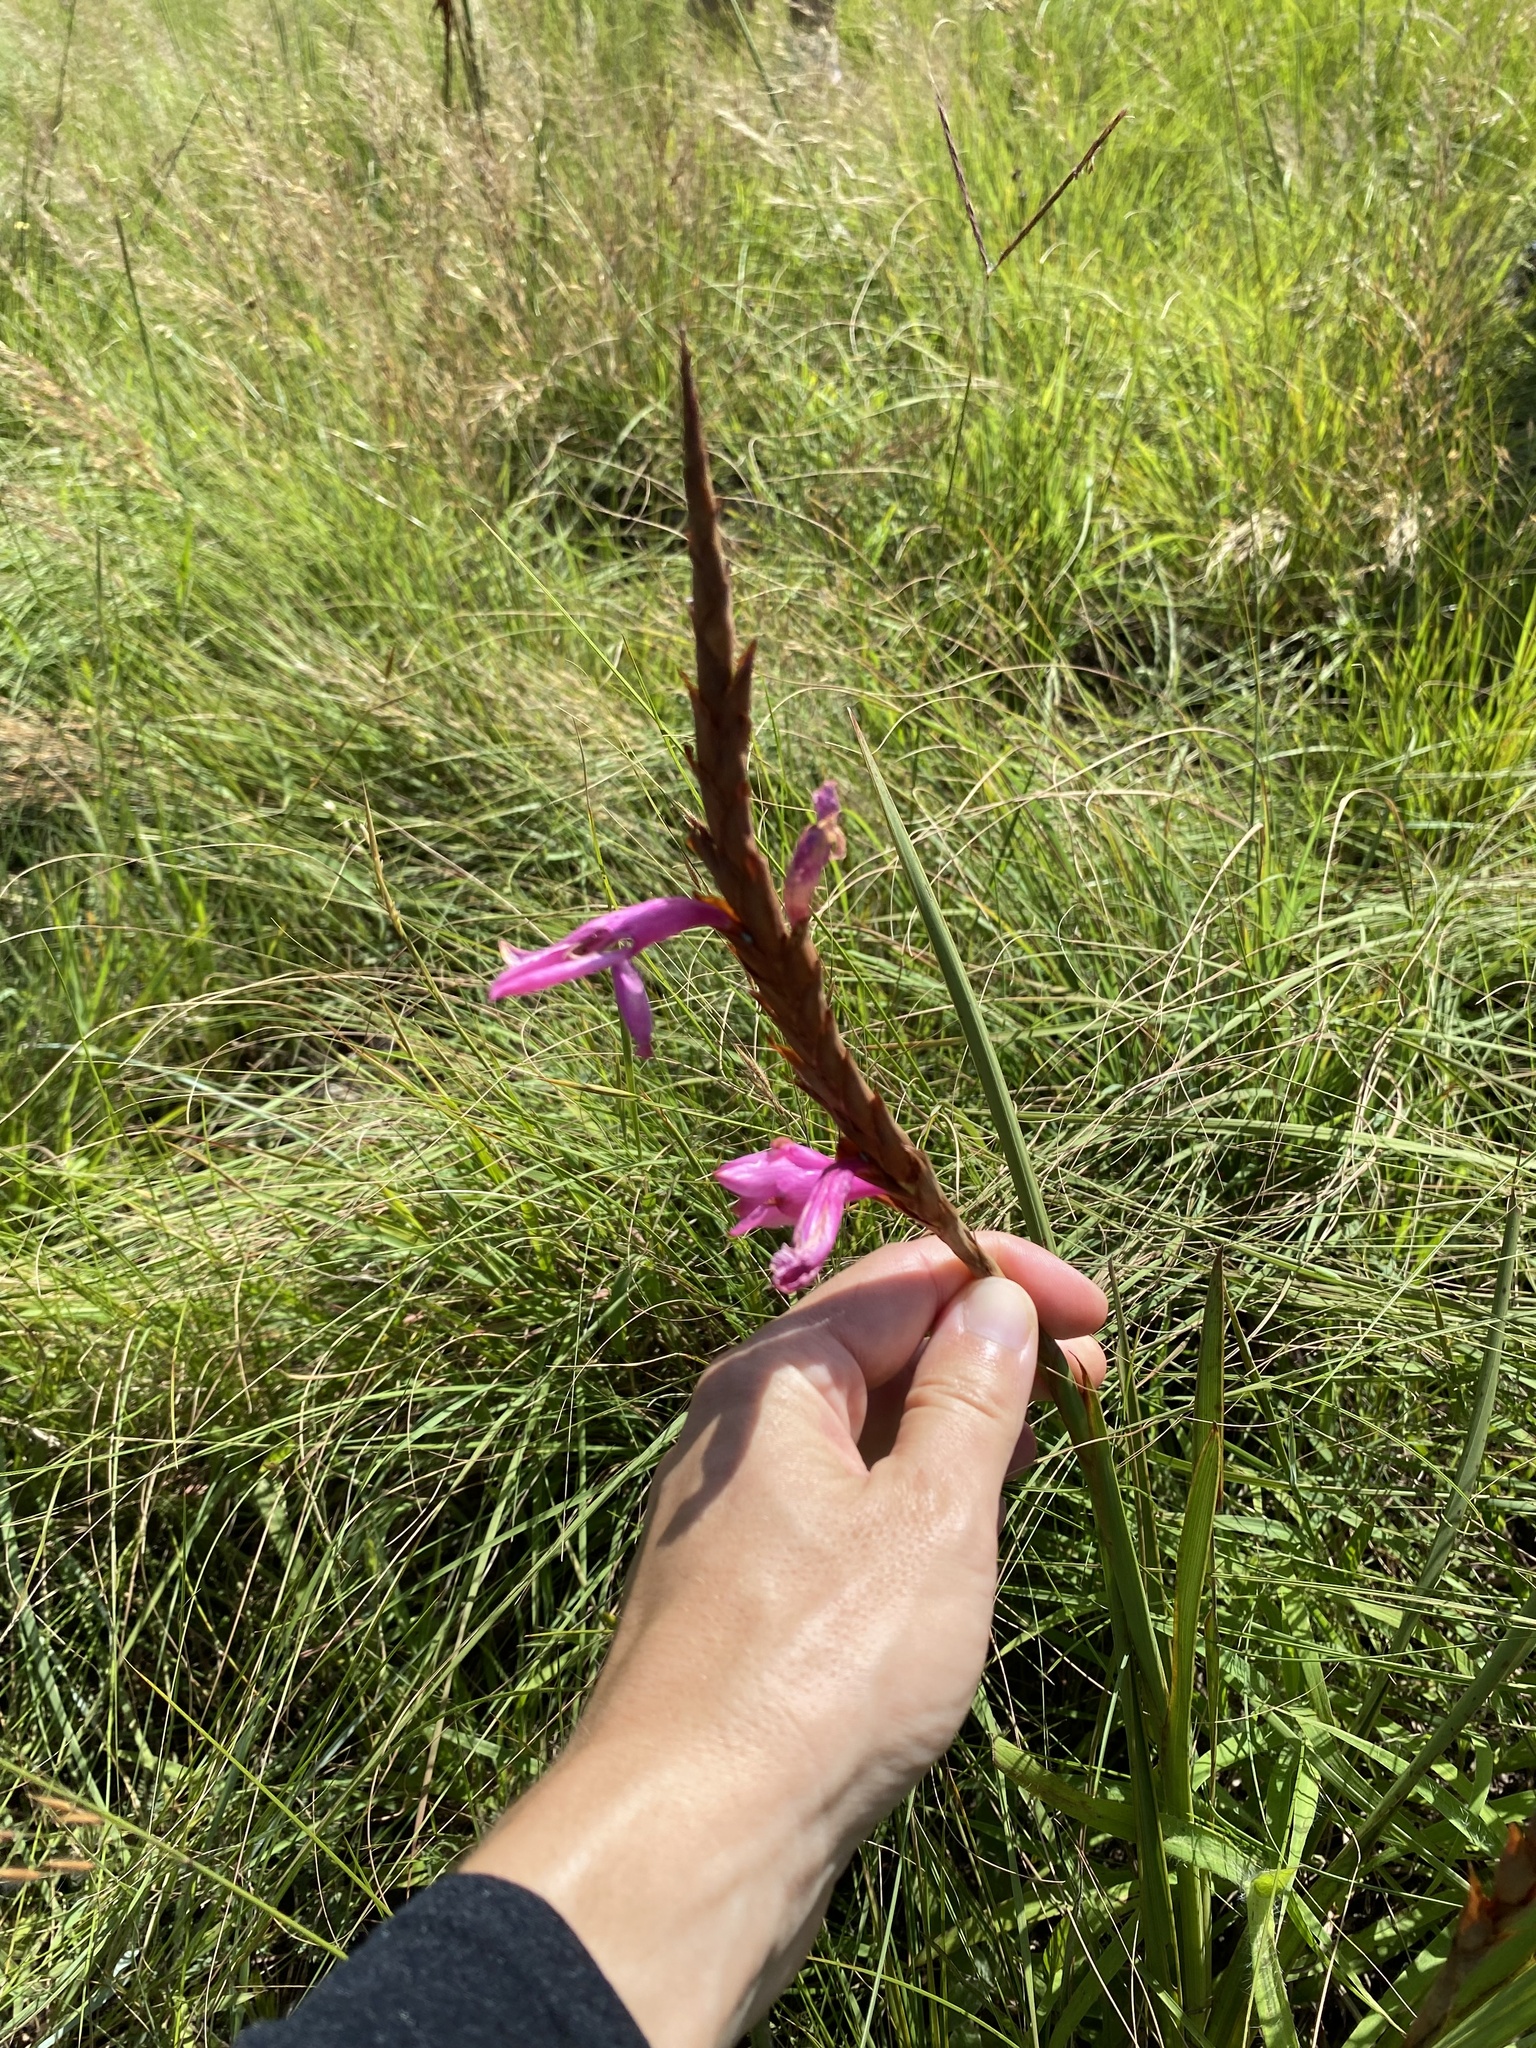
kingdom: Plantae
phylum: Tracheophyta
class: Liliopsida
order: Asparagales
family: Iridaceae
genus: Watsonia
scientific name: Watsonia densiflora
